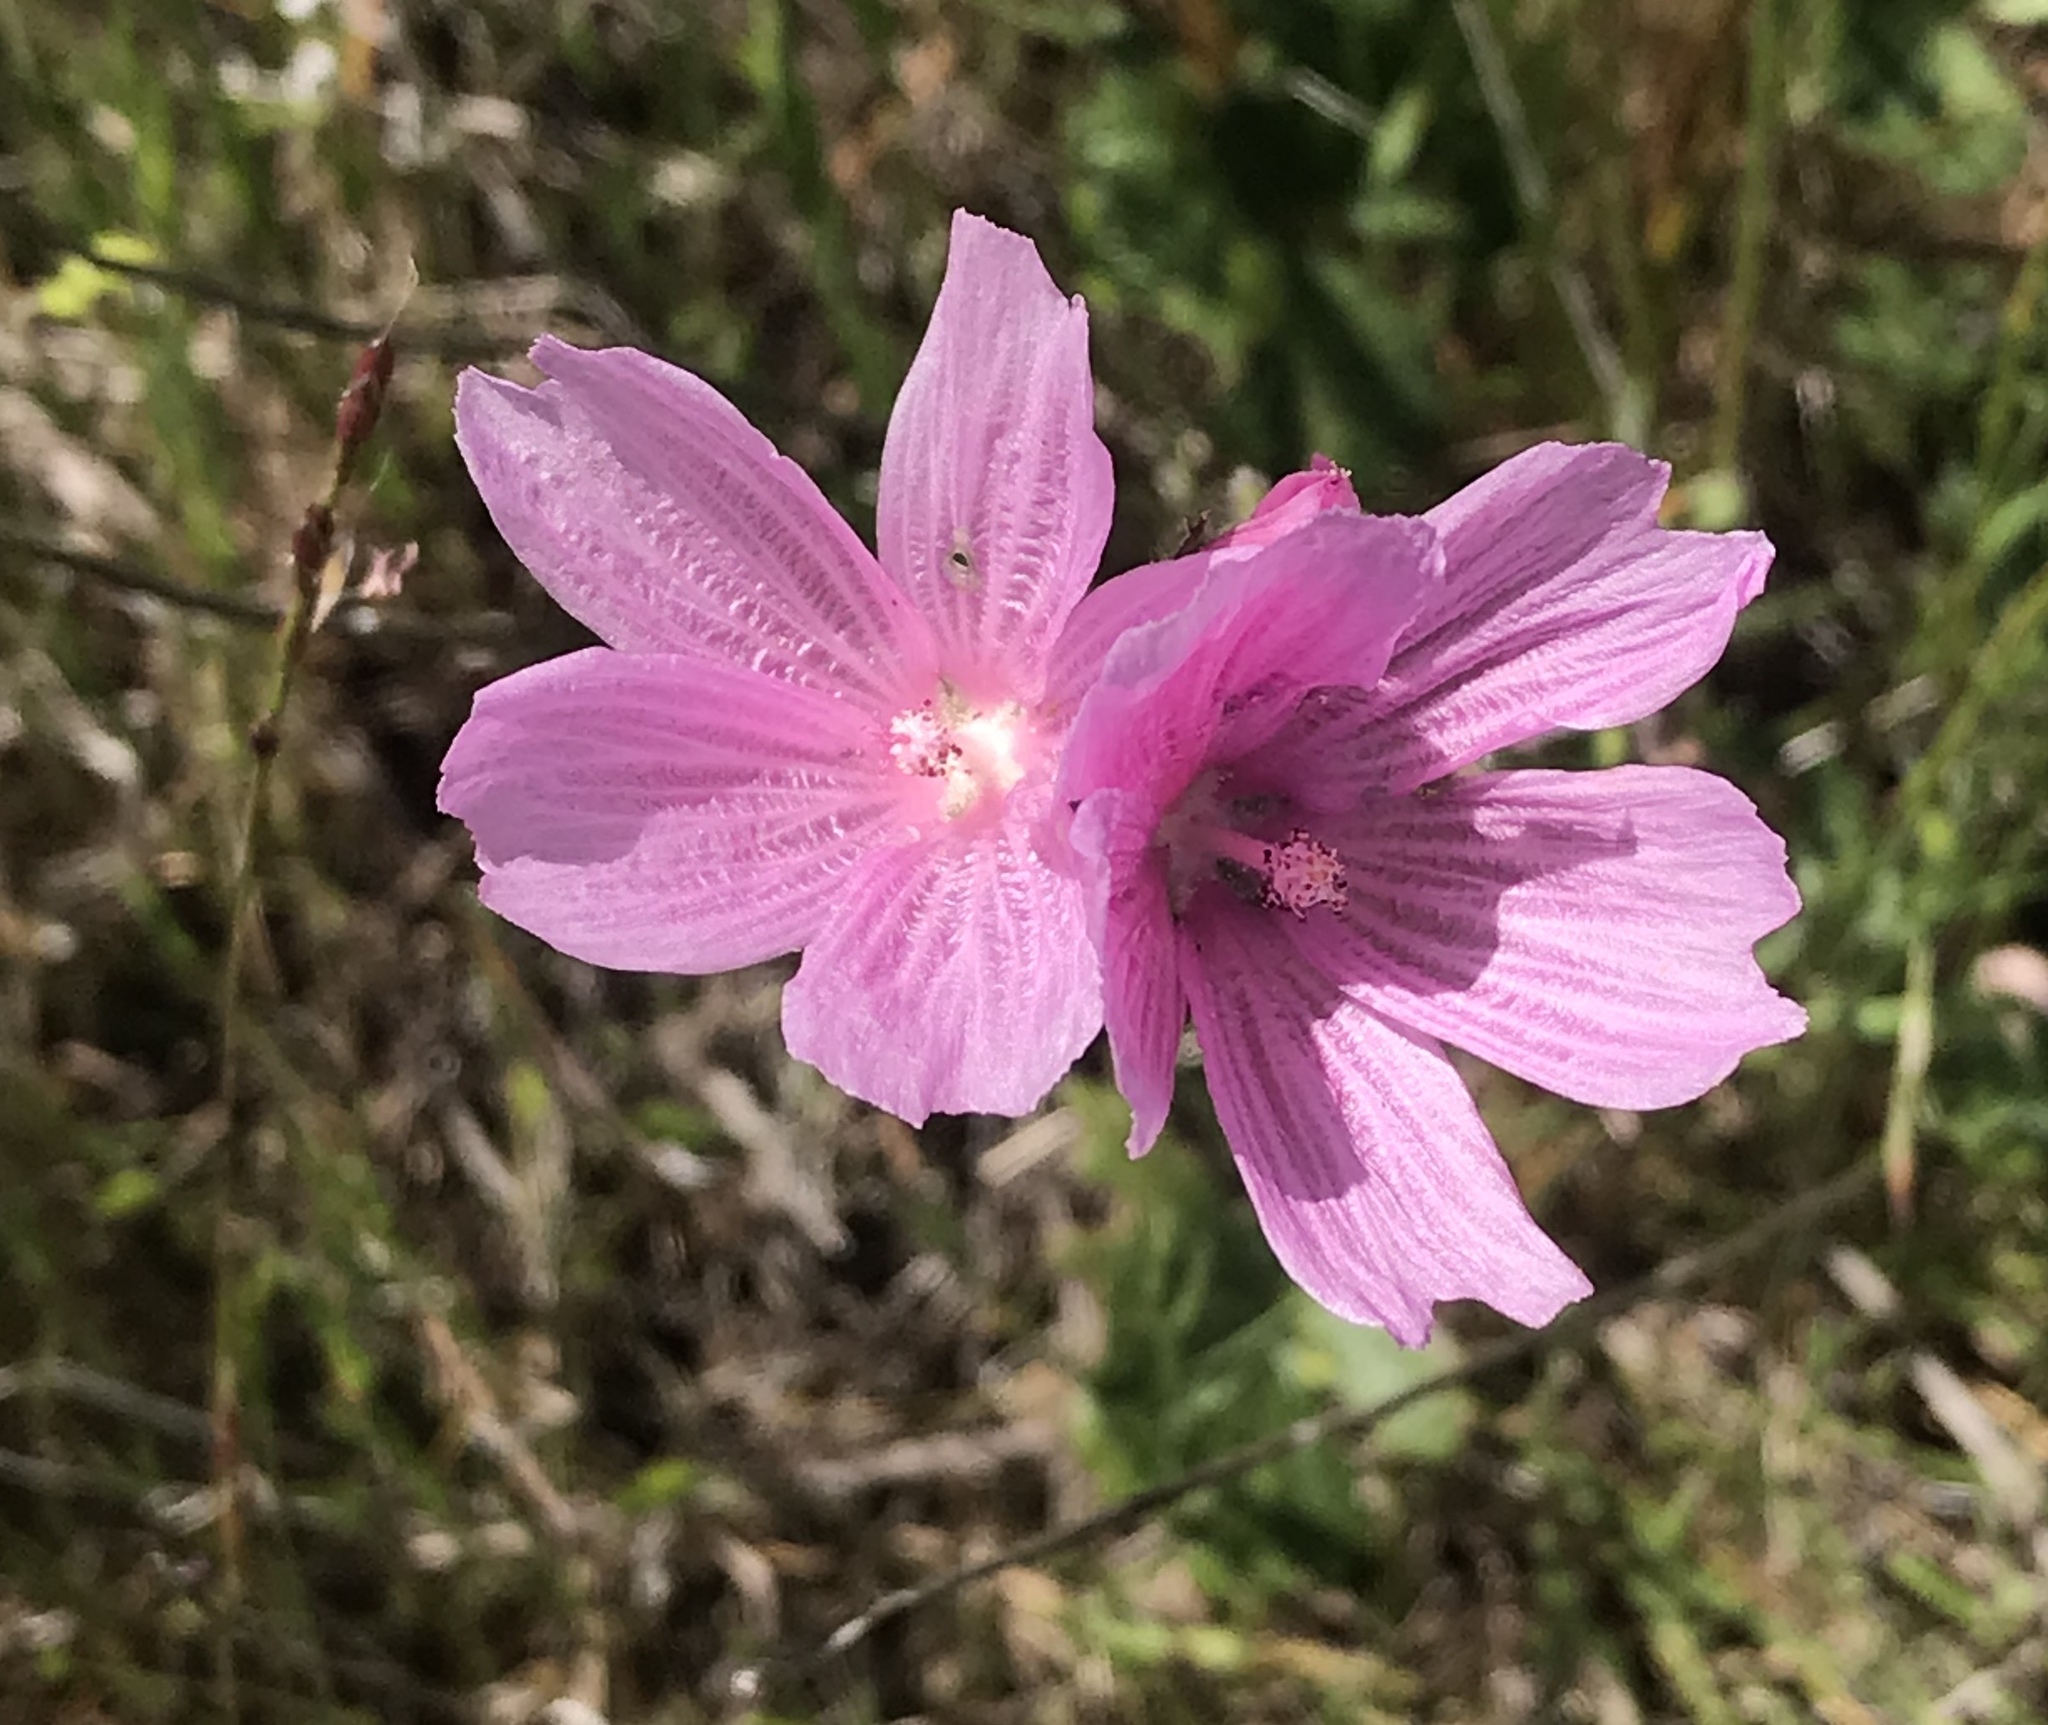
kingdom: Plantae
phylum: Tracheophyta
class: Magnoliopsida
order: Malvales
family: Malvaceae
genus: Sidalcea
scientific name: Sidalcea malviflora
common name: Greek mallow
